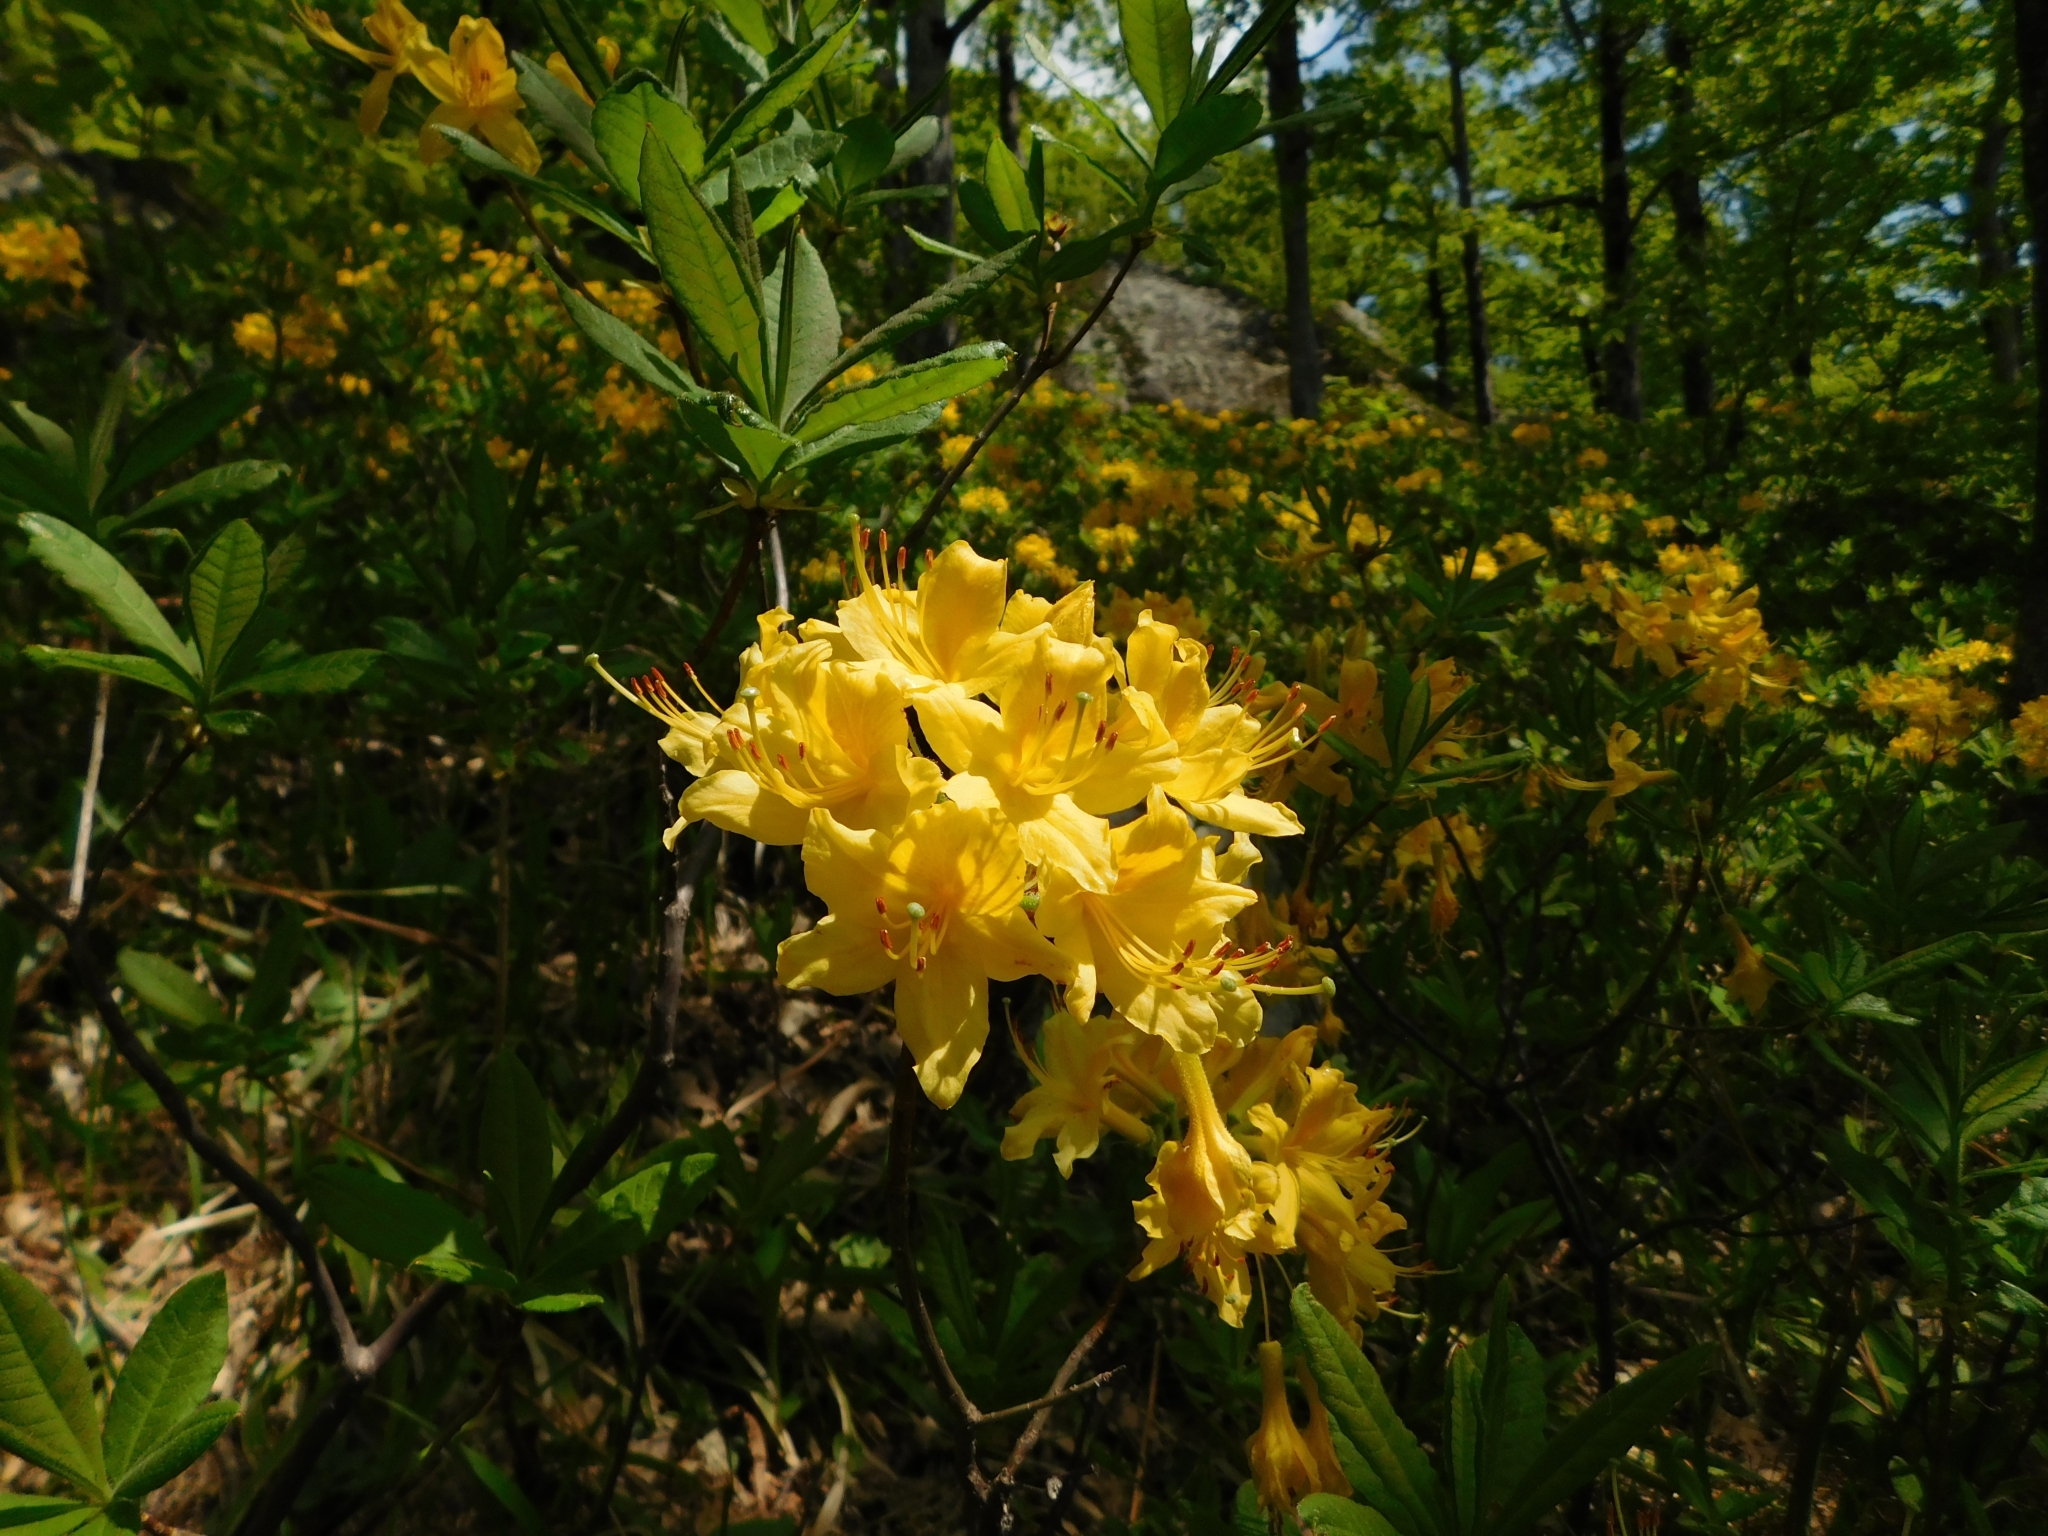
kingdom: Plantae
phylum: Tracheophyta
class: Magnoliopsida
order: Ericales
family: Ericaceae
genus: Rhododendron
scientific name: Rhododendron luteum
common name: Yellow azalea
